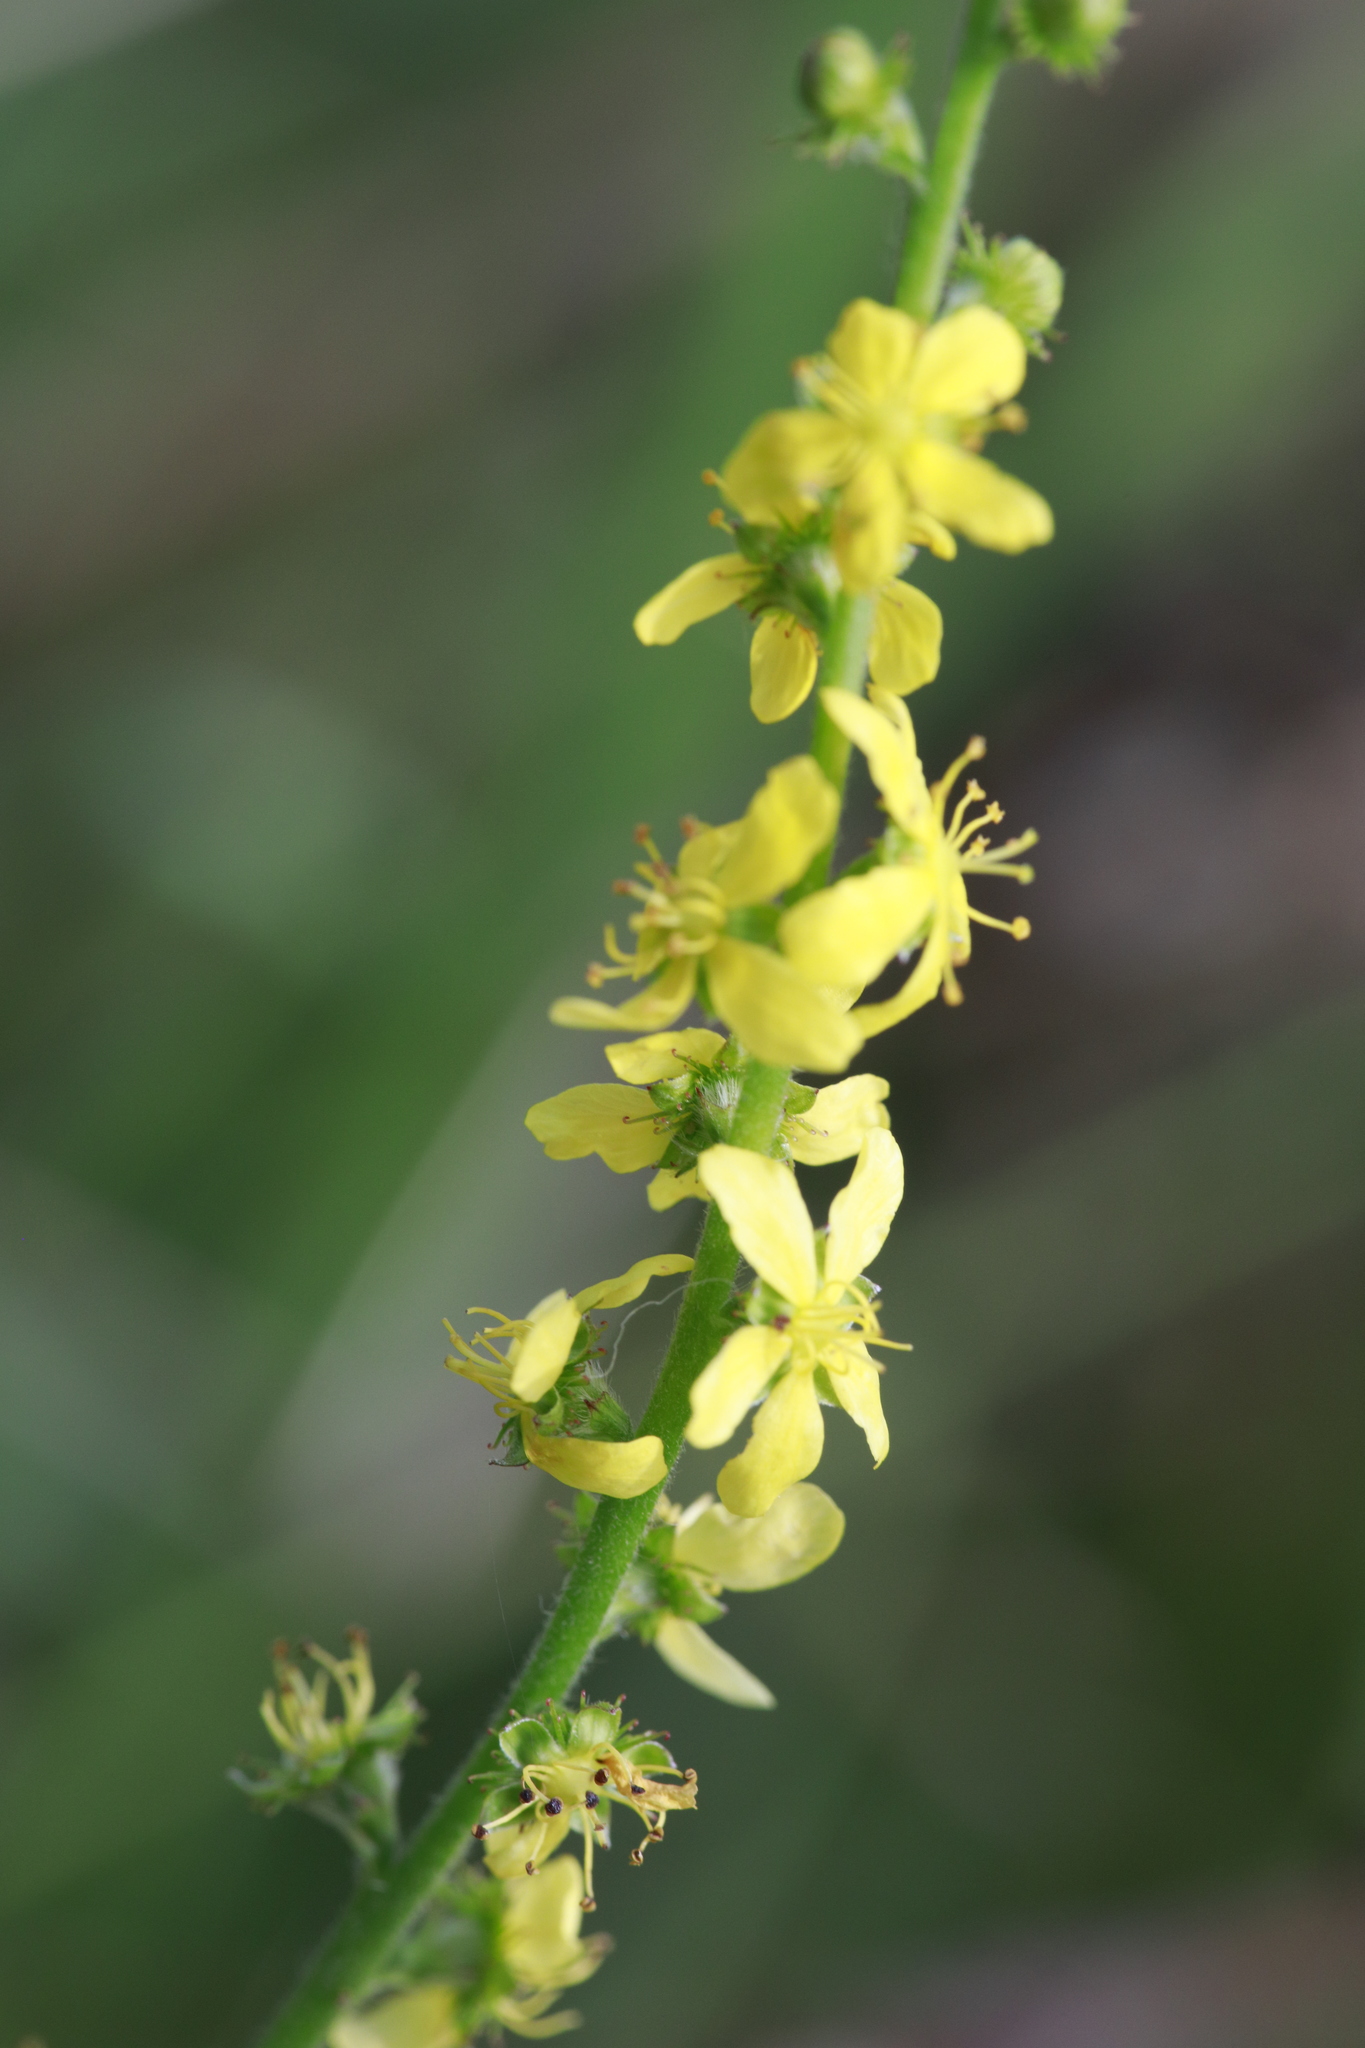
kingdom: Plantae
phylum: Tracheophyta
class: Magnoliopsida
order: Rosales
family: Rosaceae
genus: Agrimonia
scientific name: Agrimonia eupatoria
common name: Agrimony
